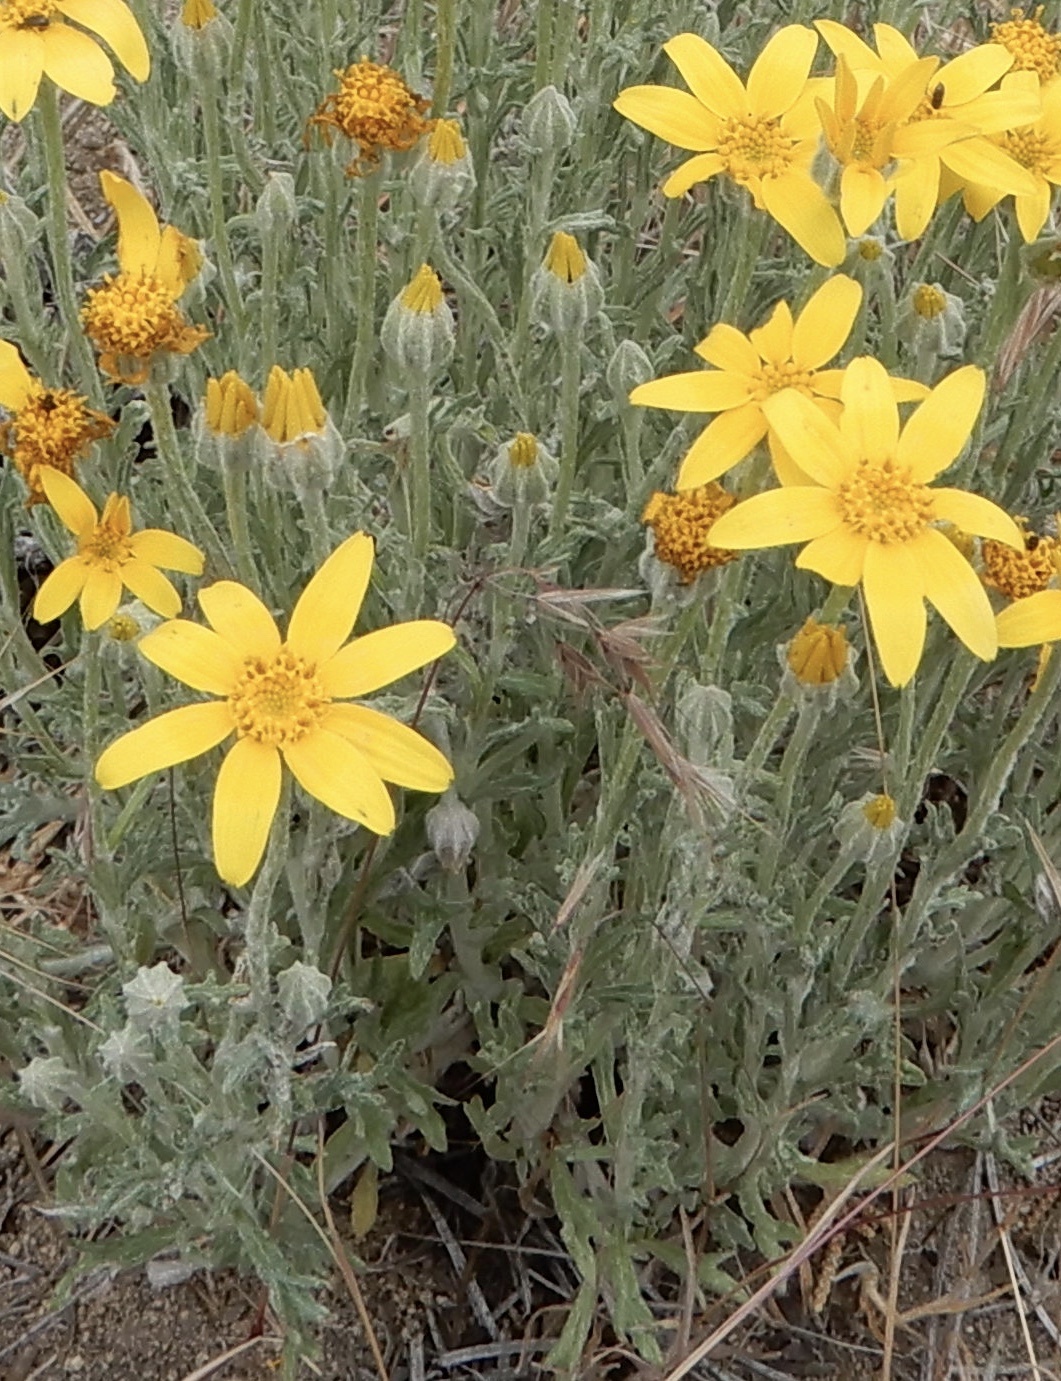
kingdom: Plantae
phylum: Tracheophyta
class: Magnoliopsida
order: Asterales
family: Asteraceae
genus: Eriophyllum
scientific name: Eriophyllum lanatum
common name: Common woolly-sunflower
